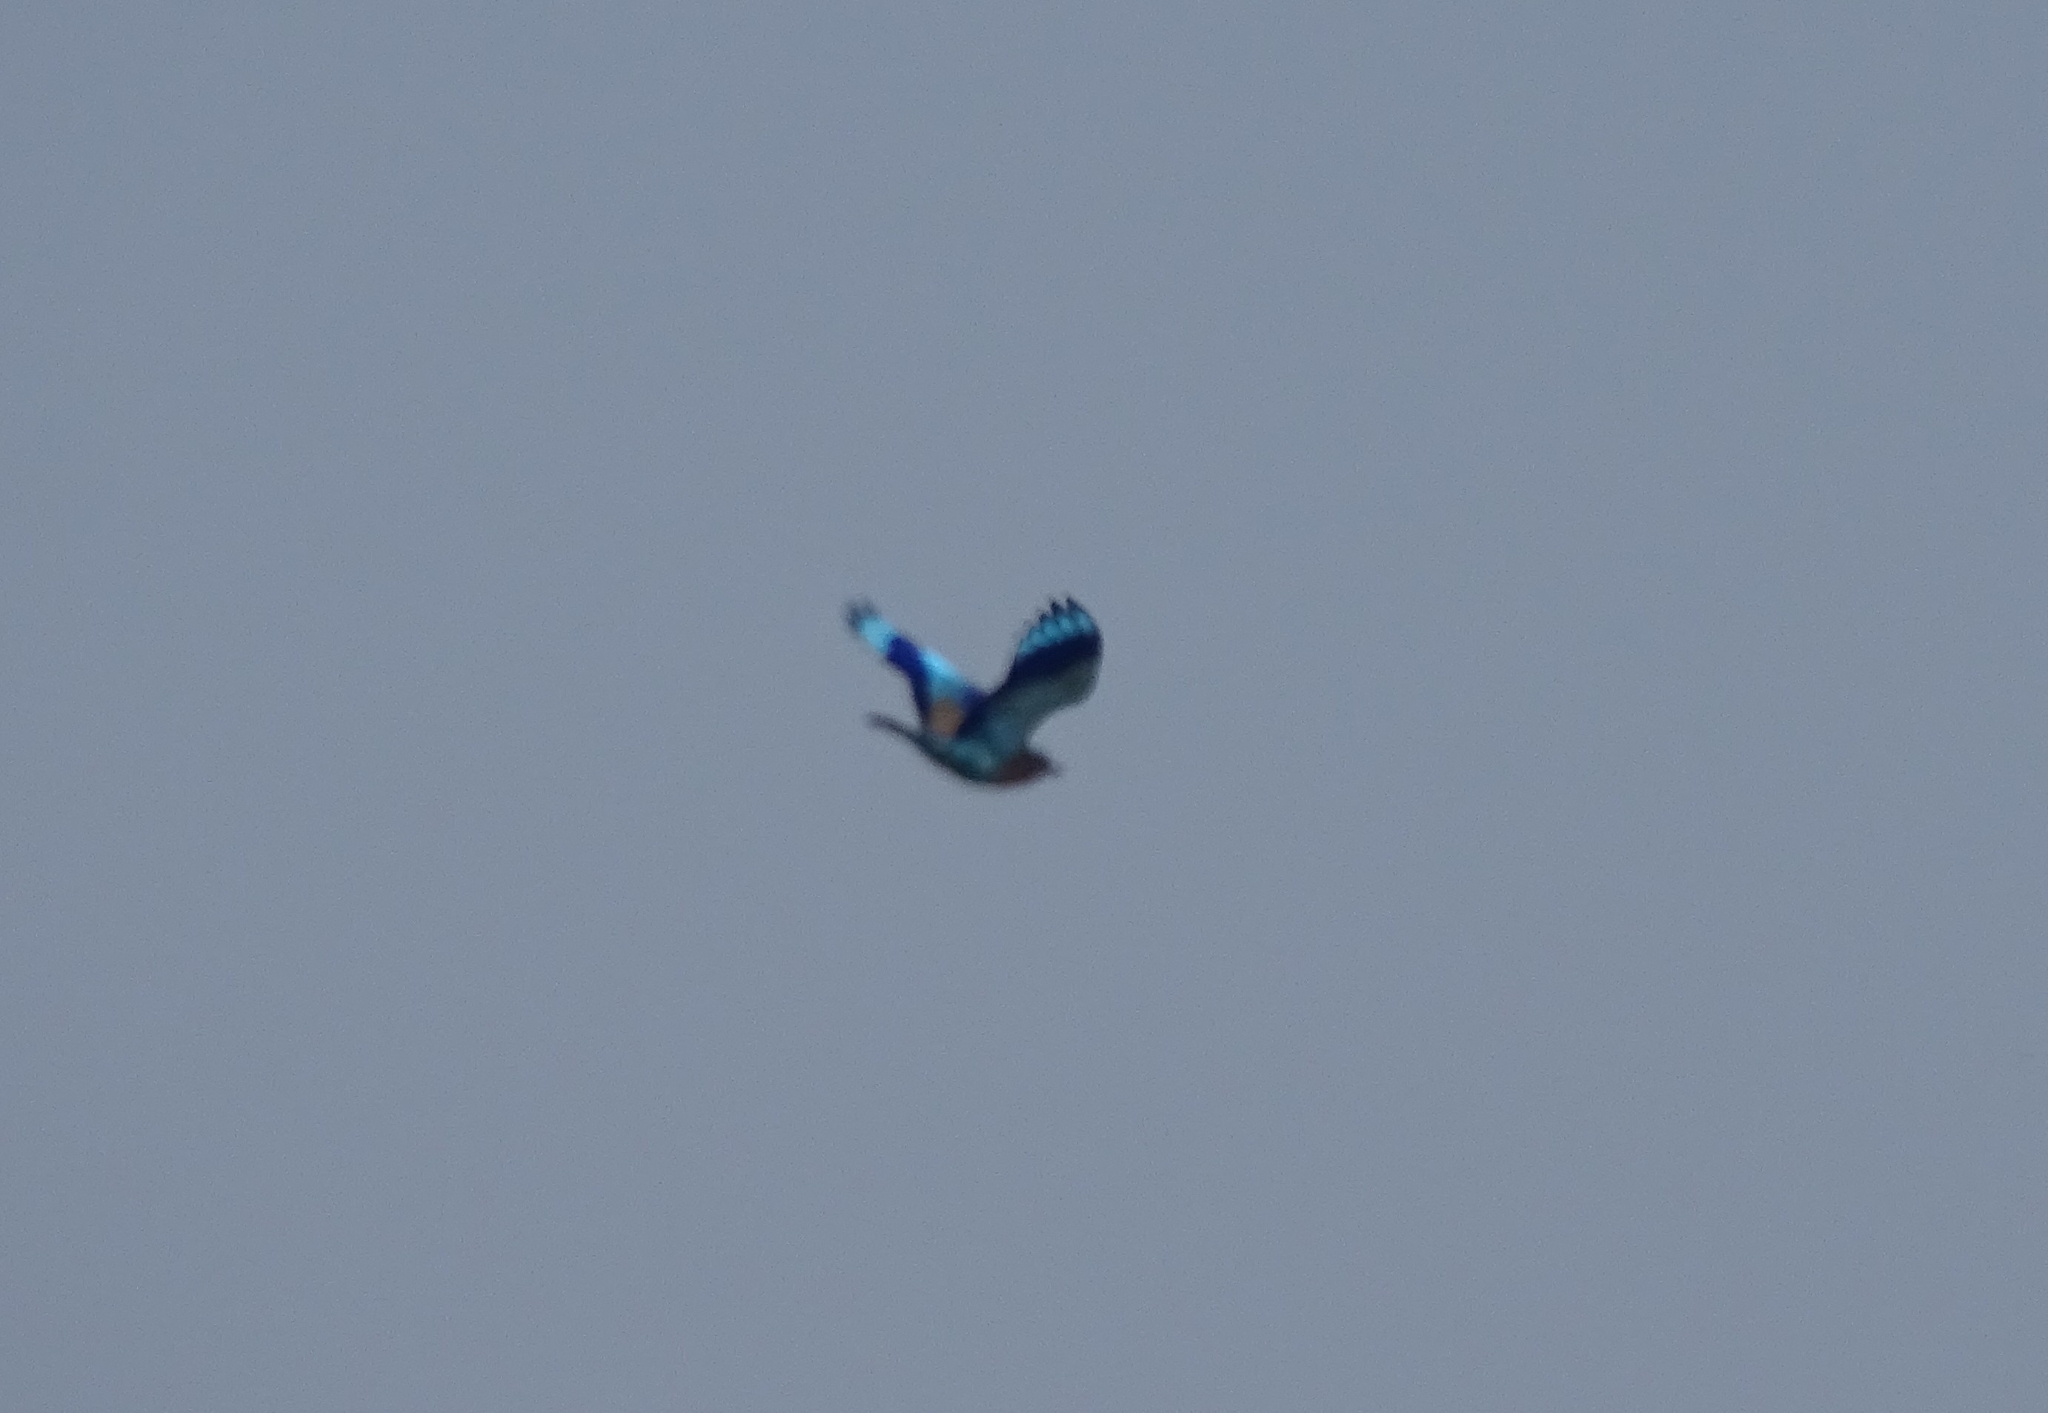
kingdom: Animalia
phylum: Chordata
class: Aves
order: Coraciiformes
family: Coraciidae
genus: Coracias
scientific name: Coracias benghalensis
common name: Indian roller
